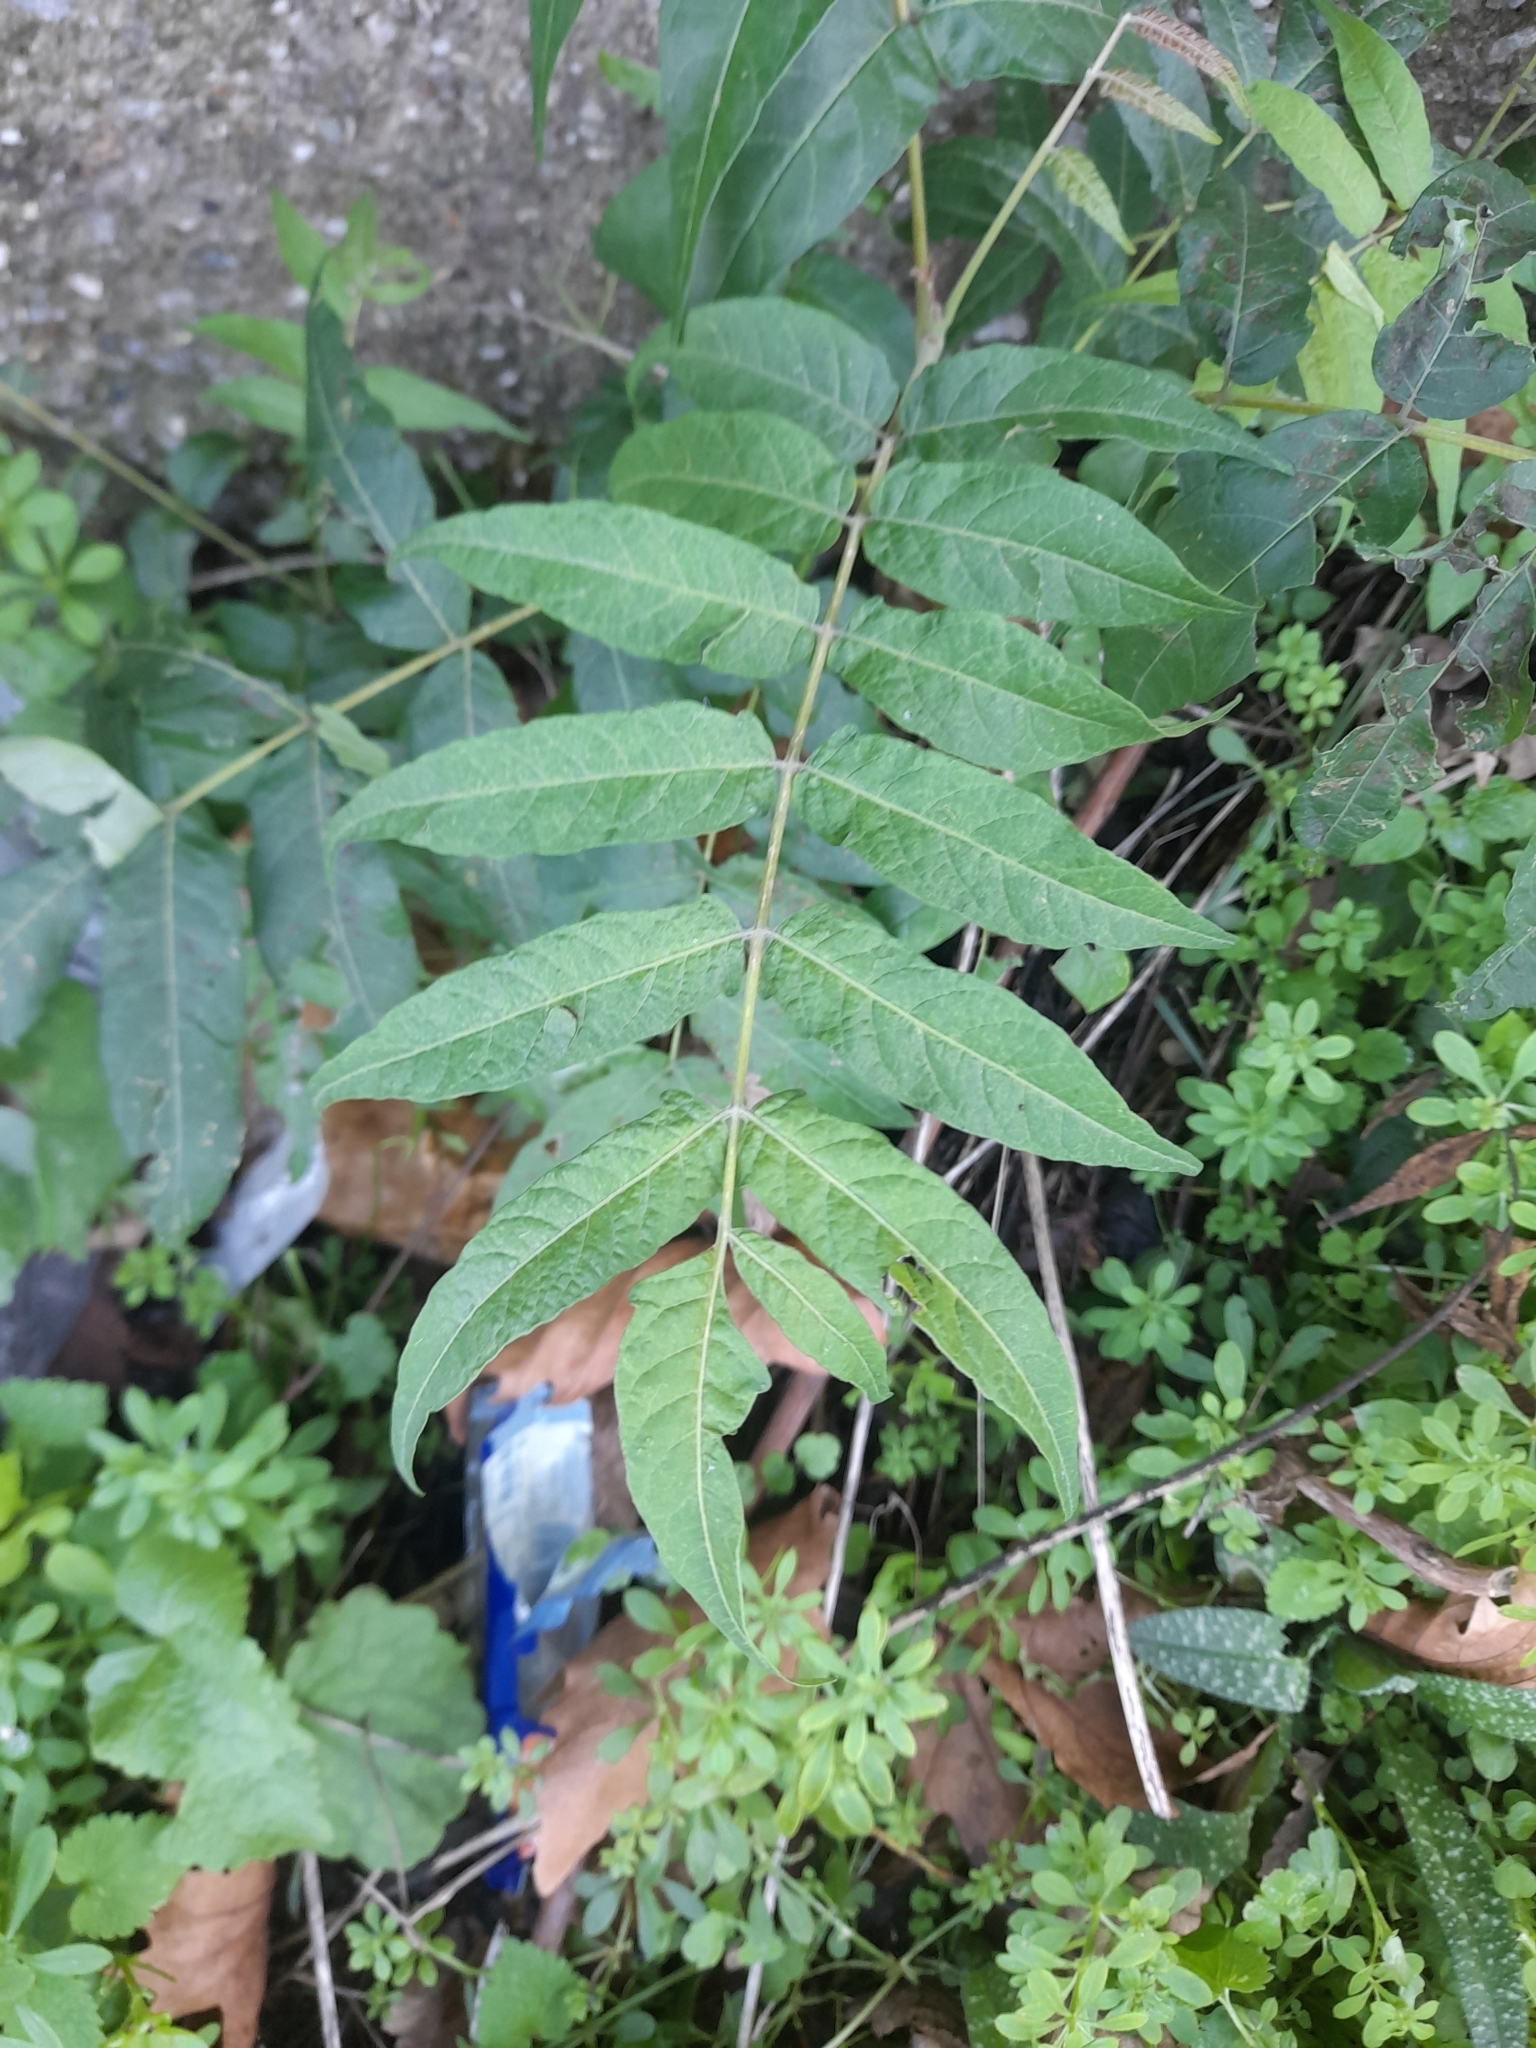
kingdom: Plantae
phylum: Tracheophyta
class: Magnoliopsida
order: Sapindales
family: Simaroubaceae
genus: Ailanthus
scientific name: Ailanthus altissima
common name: Tree-of-heaven
